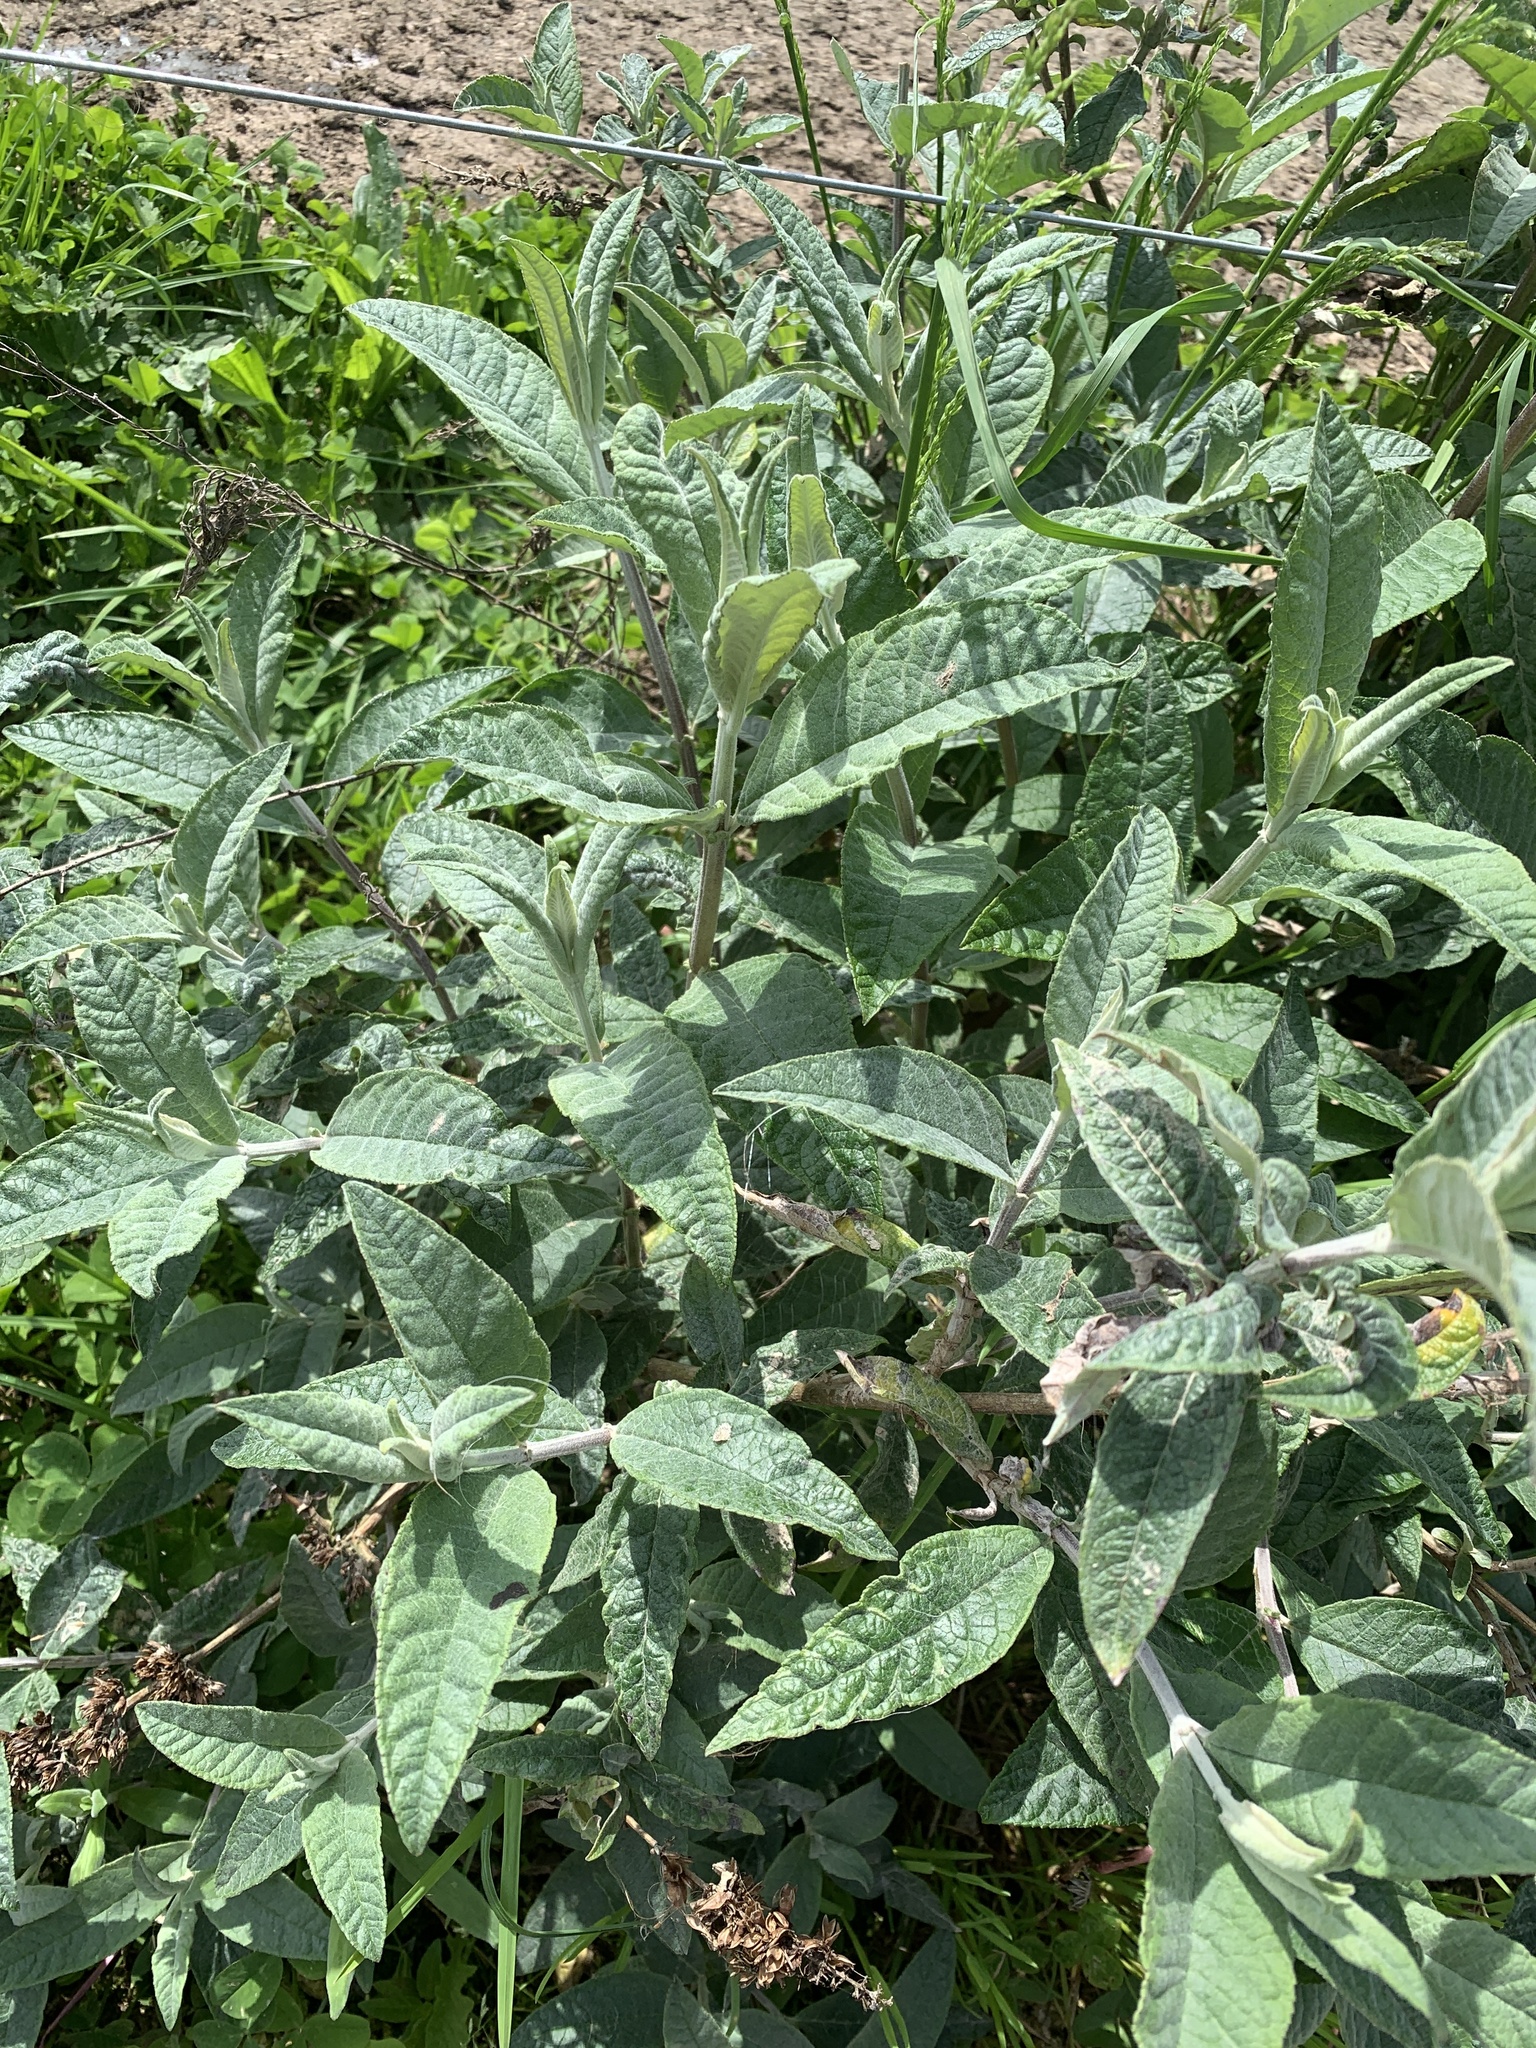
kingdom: Plantae
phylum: Tracheophyta
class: Magnoliopsida
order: Lamiales
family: Scrophulariaceae
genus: Buddleja
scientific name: Buddleja davidii
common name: Butterfly-bush
